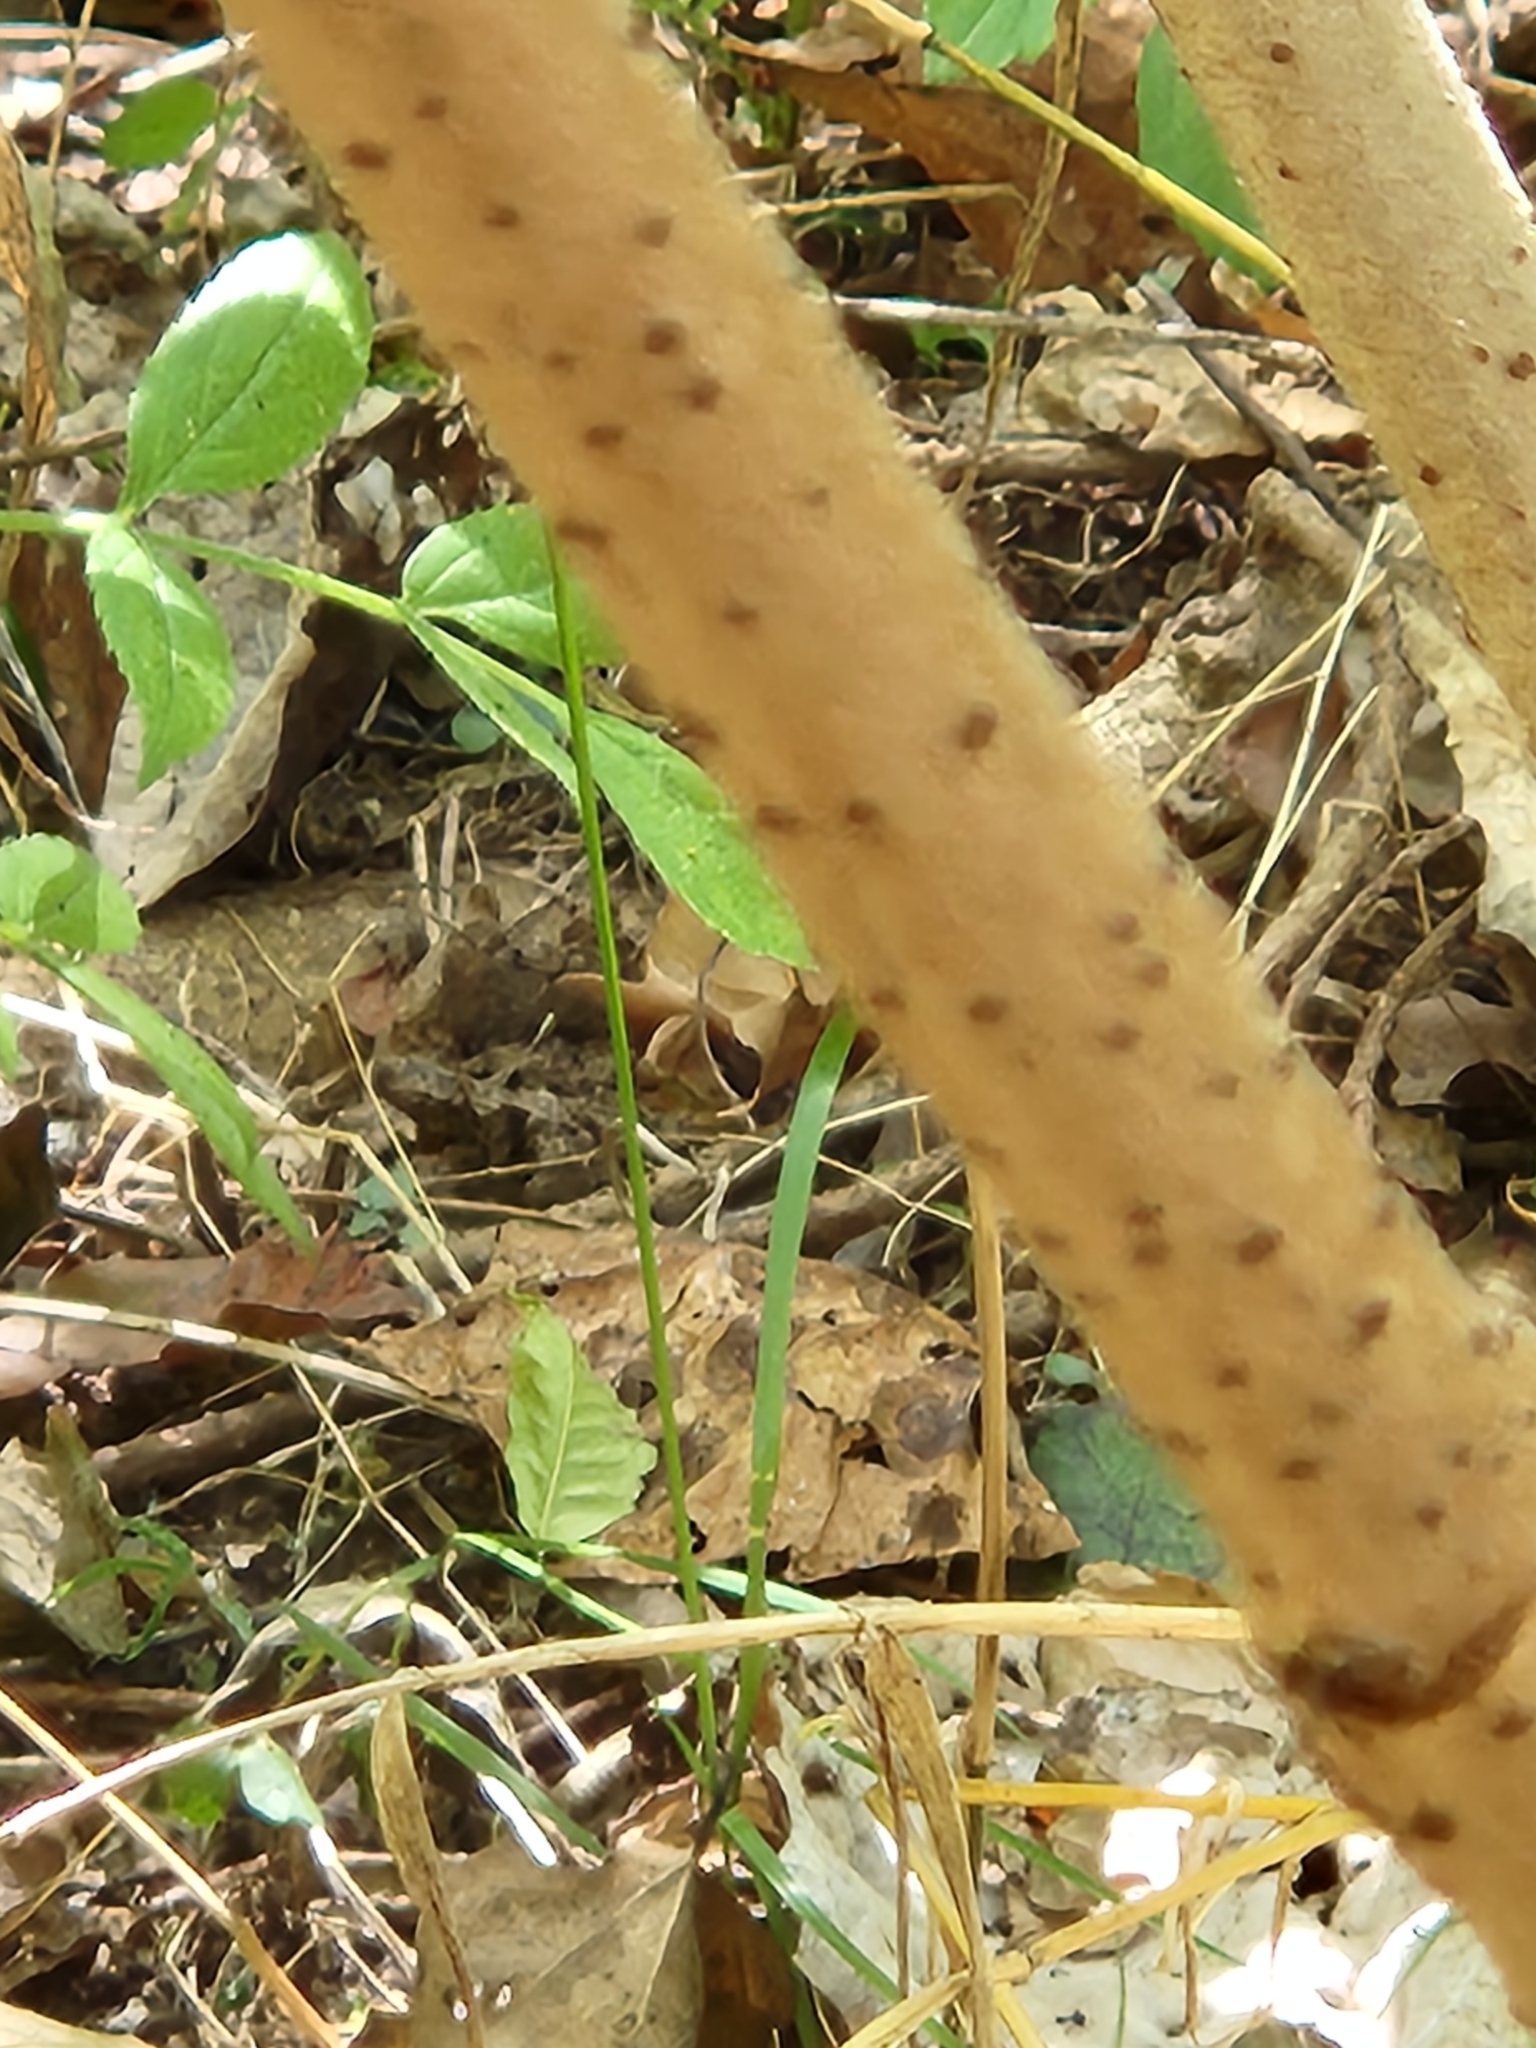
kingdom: Plantae
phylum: Tracheophyta
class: Magnoliopsida
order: Dipsacales
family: Viburnaceae
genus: Sambucus
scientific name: Sambucus canadensis
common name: American elder
